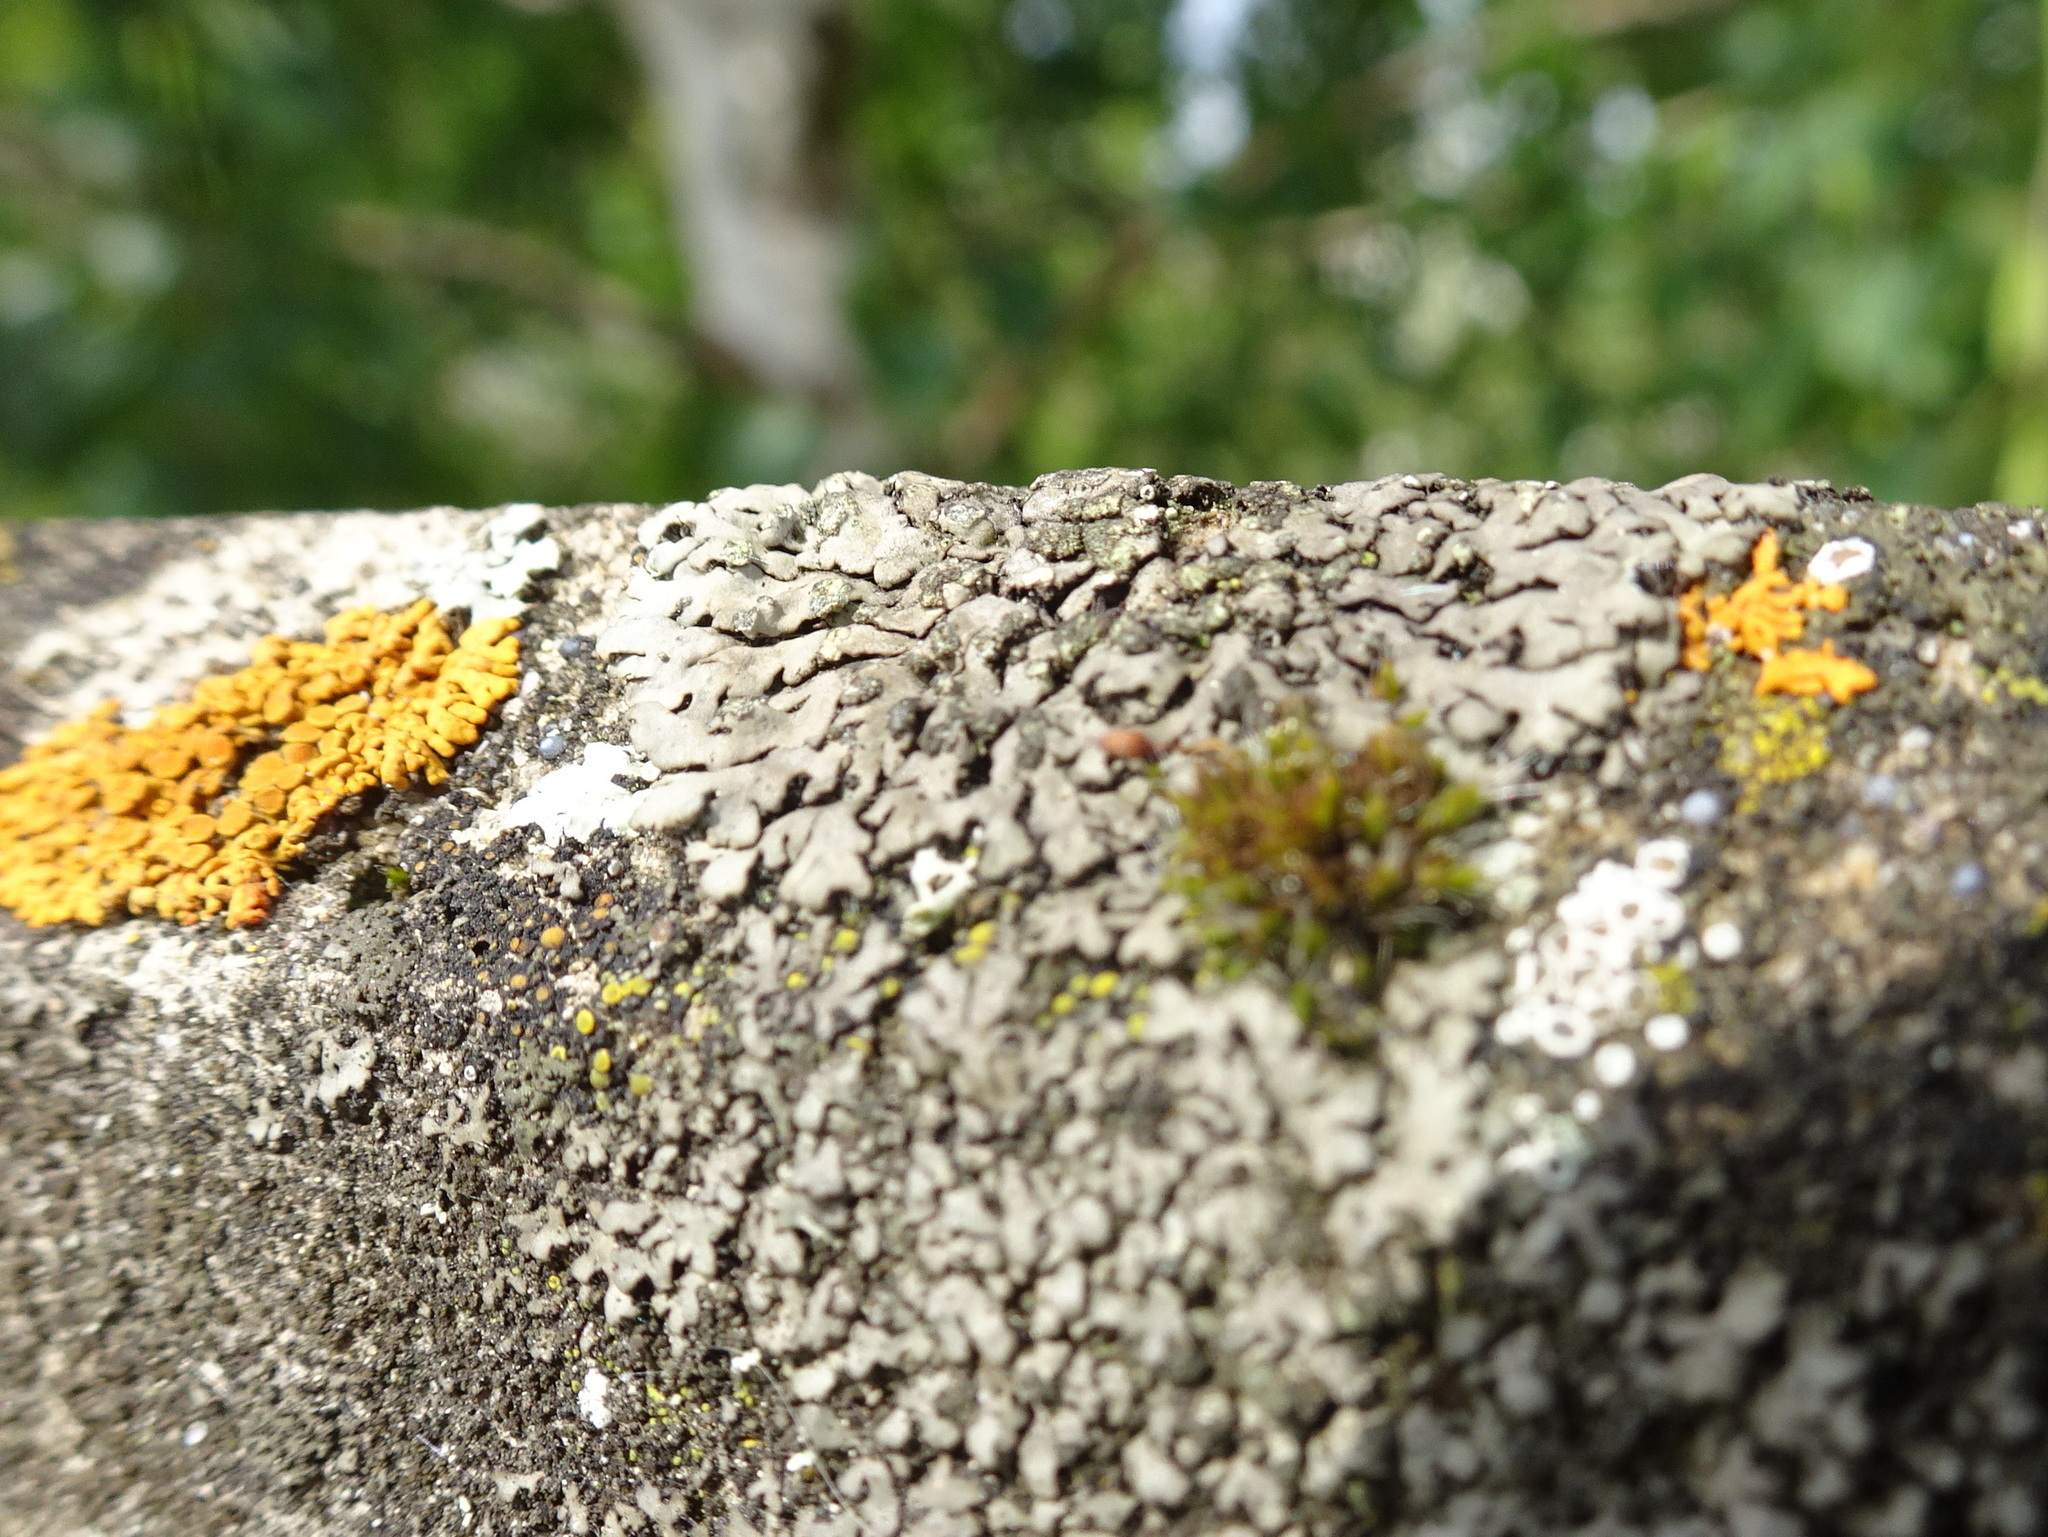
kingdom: Fungi
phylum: Ascomycota
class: Lecanoromycetes
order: Caliciales
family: Physciaceae
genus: Phaeophyscia
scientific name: Phaeophyscia orbicularis
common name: Mealy shadow lichen
